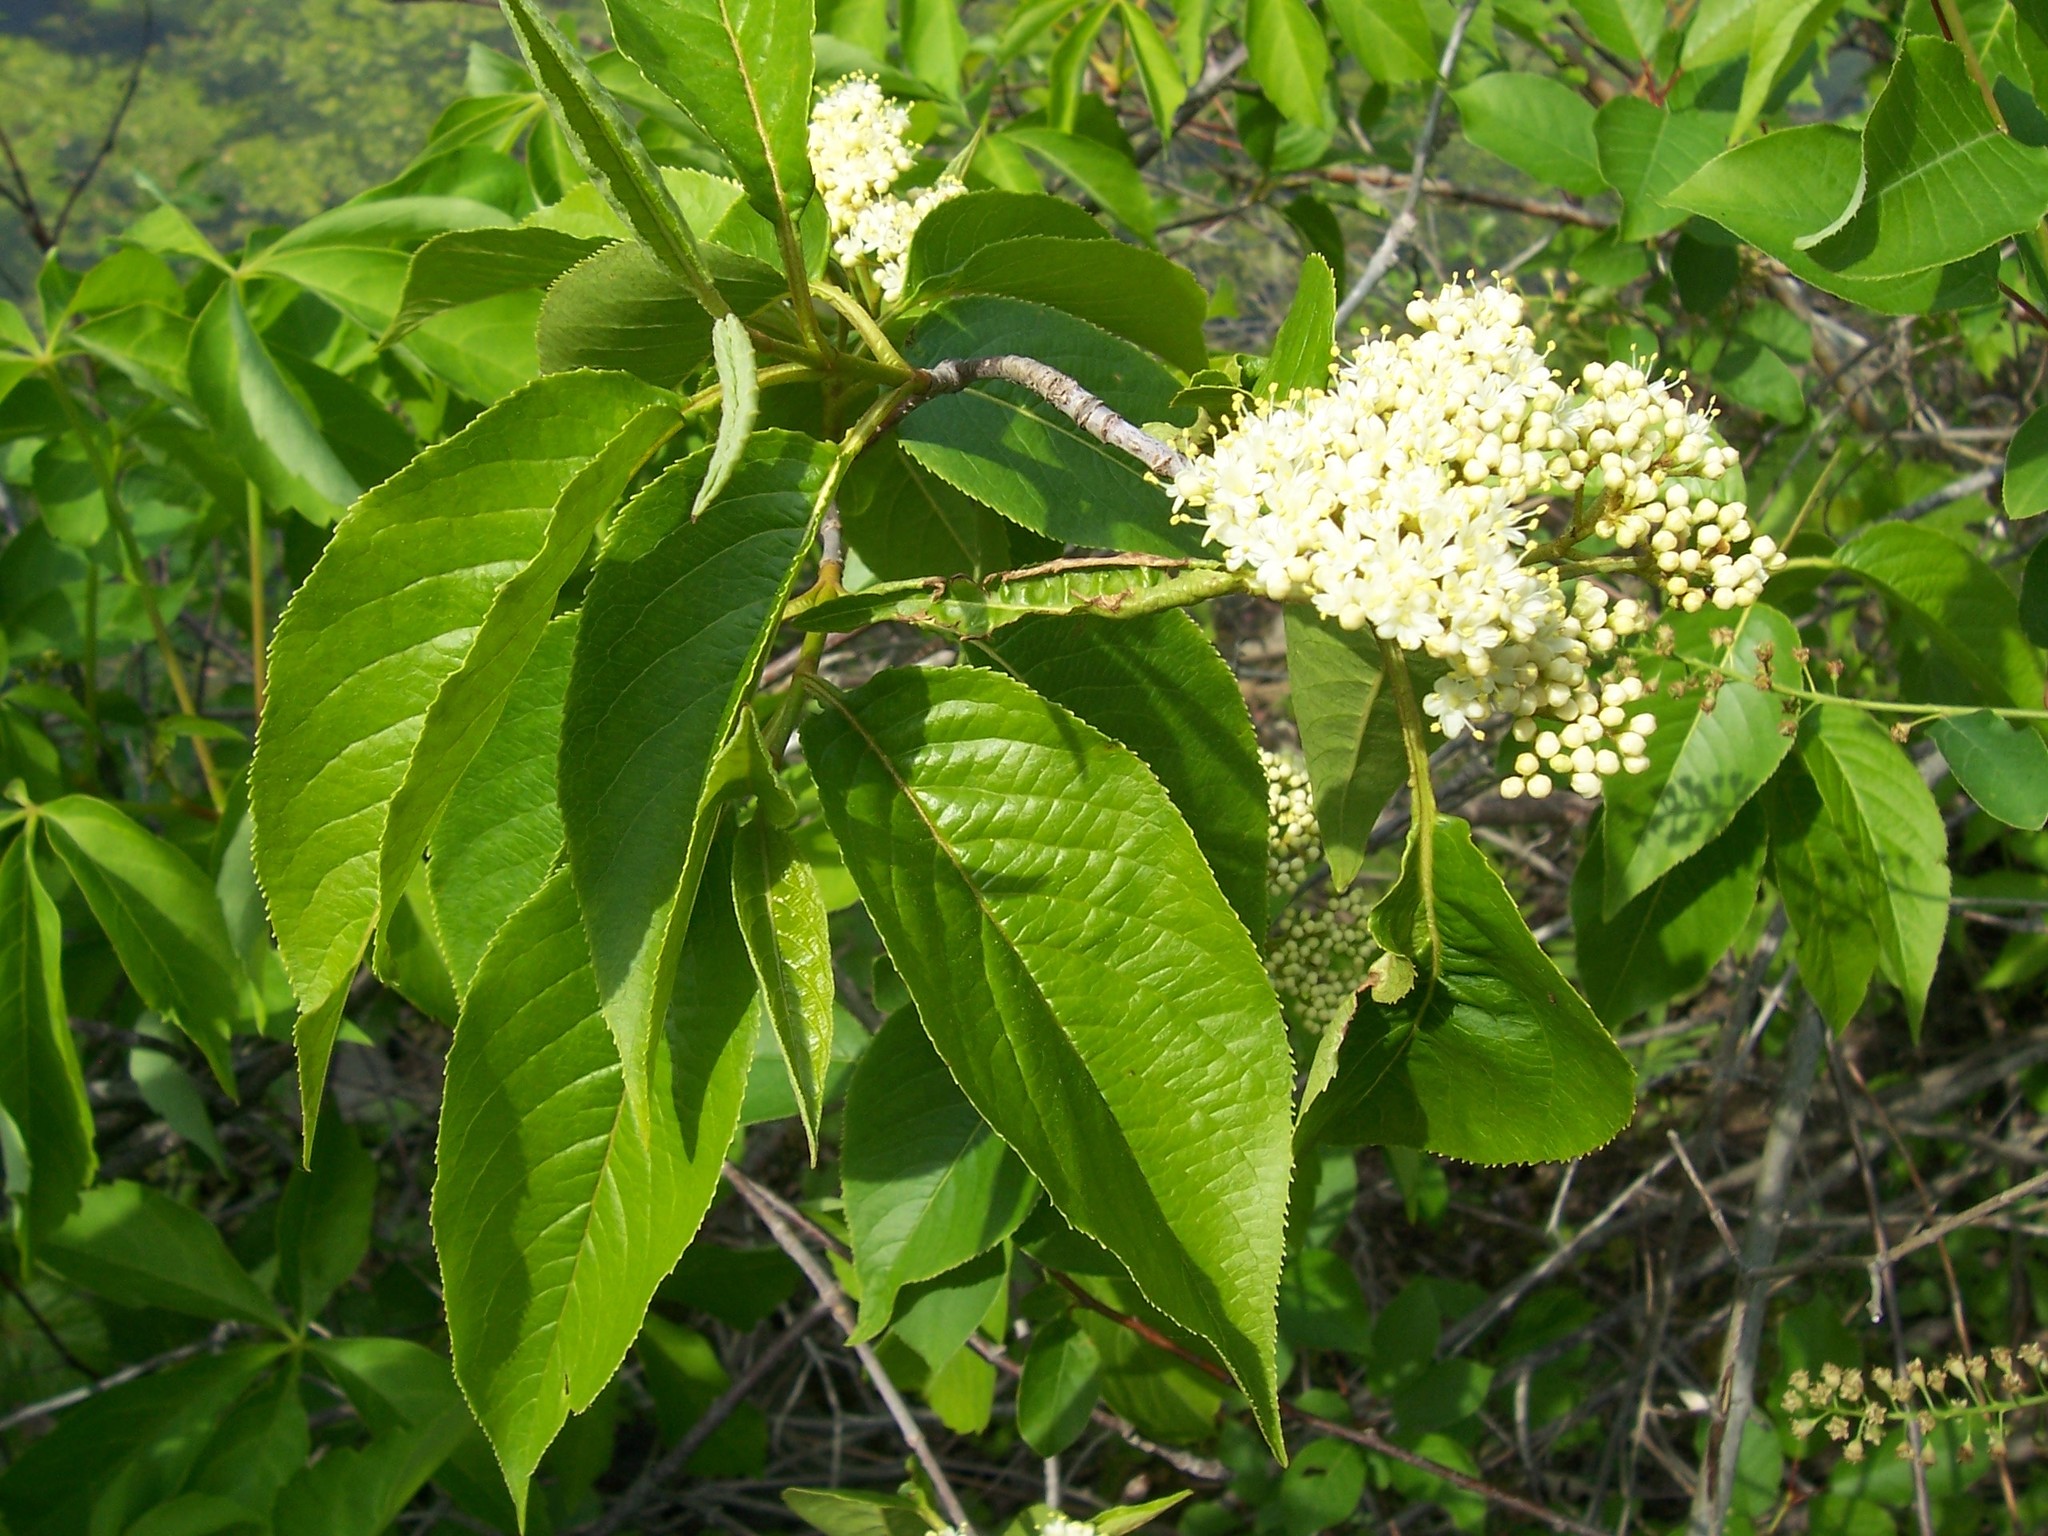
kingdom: Plantae
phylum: Tracheophyta
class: Magnoliopsida
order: Dipsacales
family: Viburnaceae
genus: Viburnum
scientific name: Viburnum lentago
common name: Black haw
